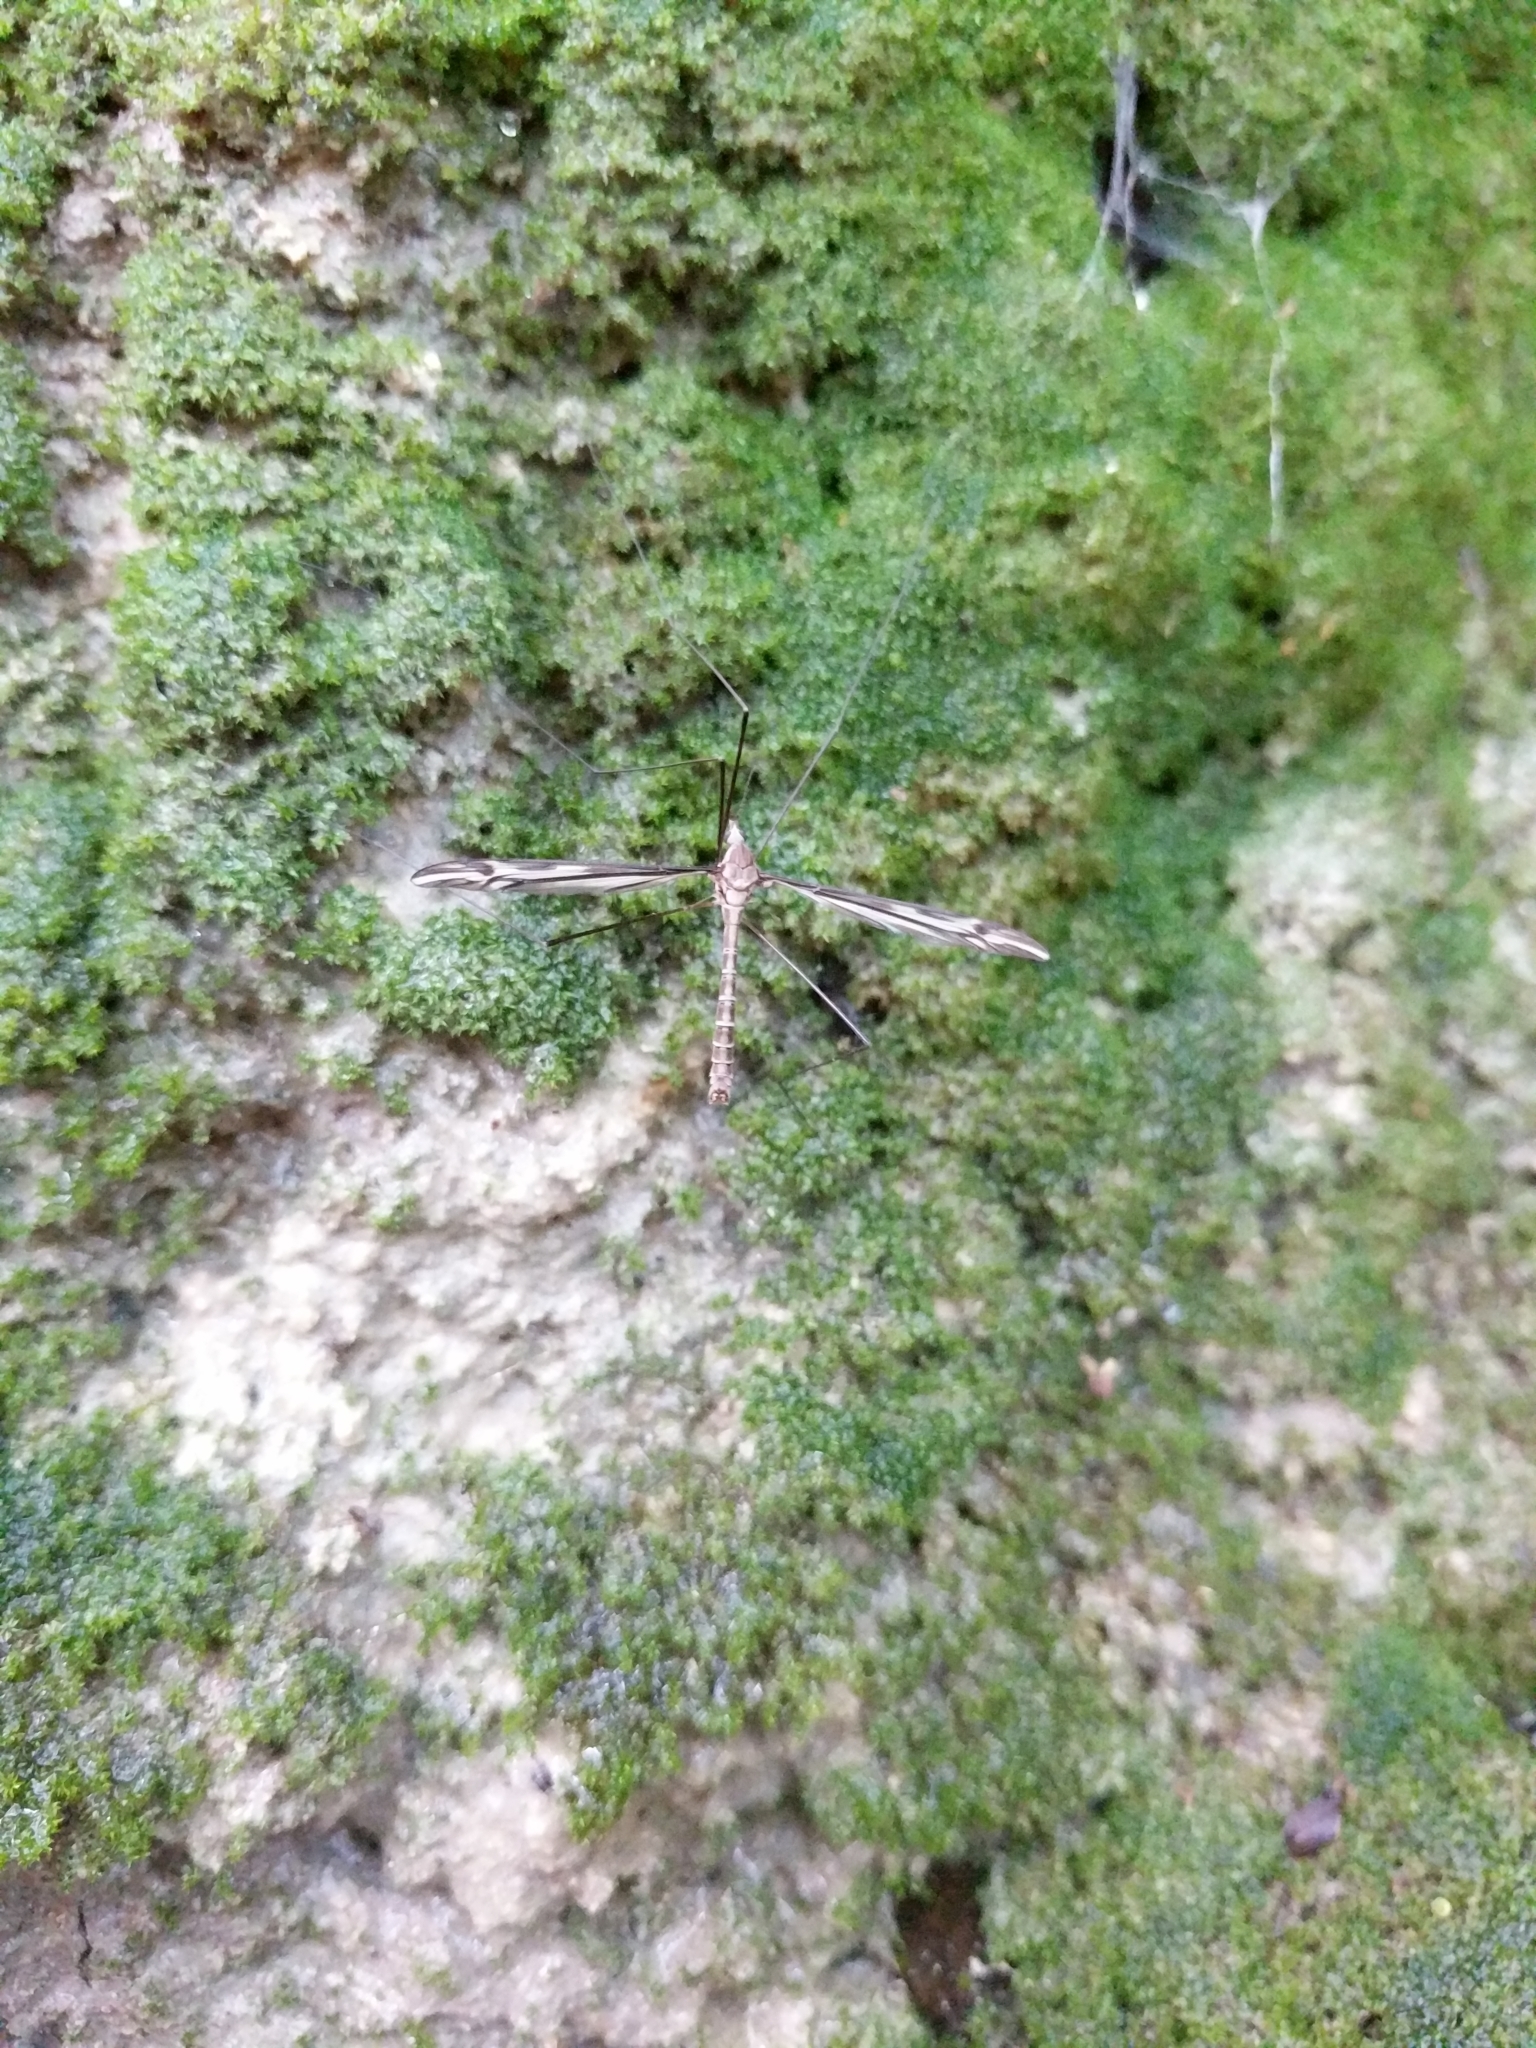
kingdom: Animalia
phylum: Arthropoda
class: Insecta
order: Diptera
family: Tipulidae
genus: Tipula
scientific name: Tipula furca
